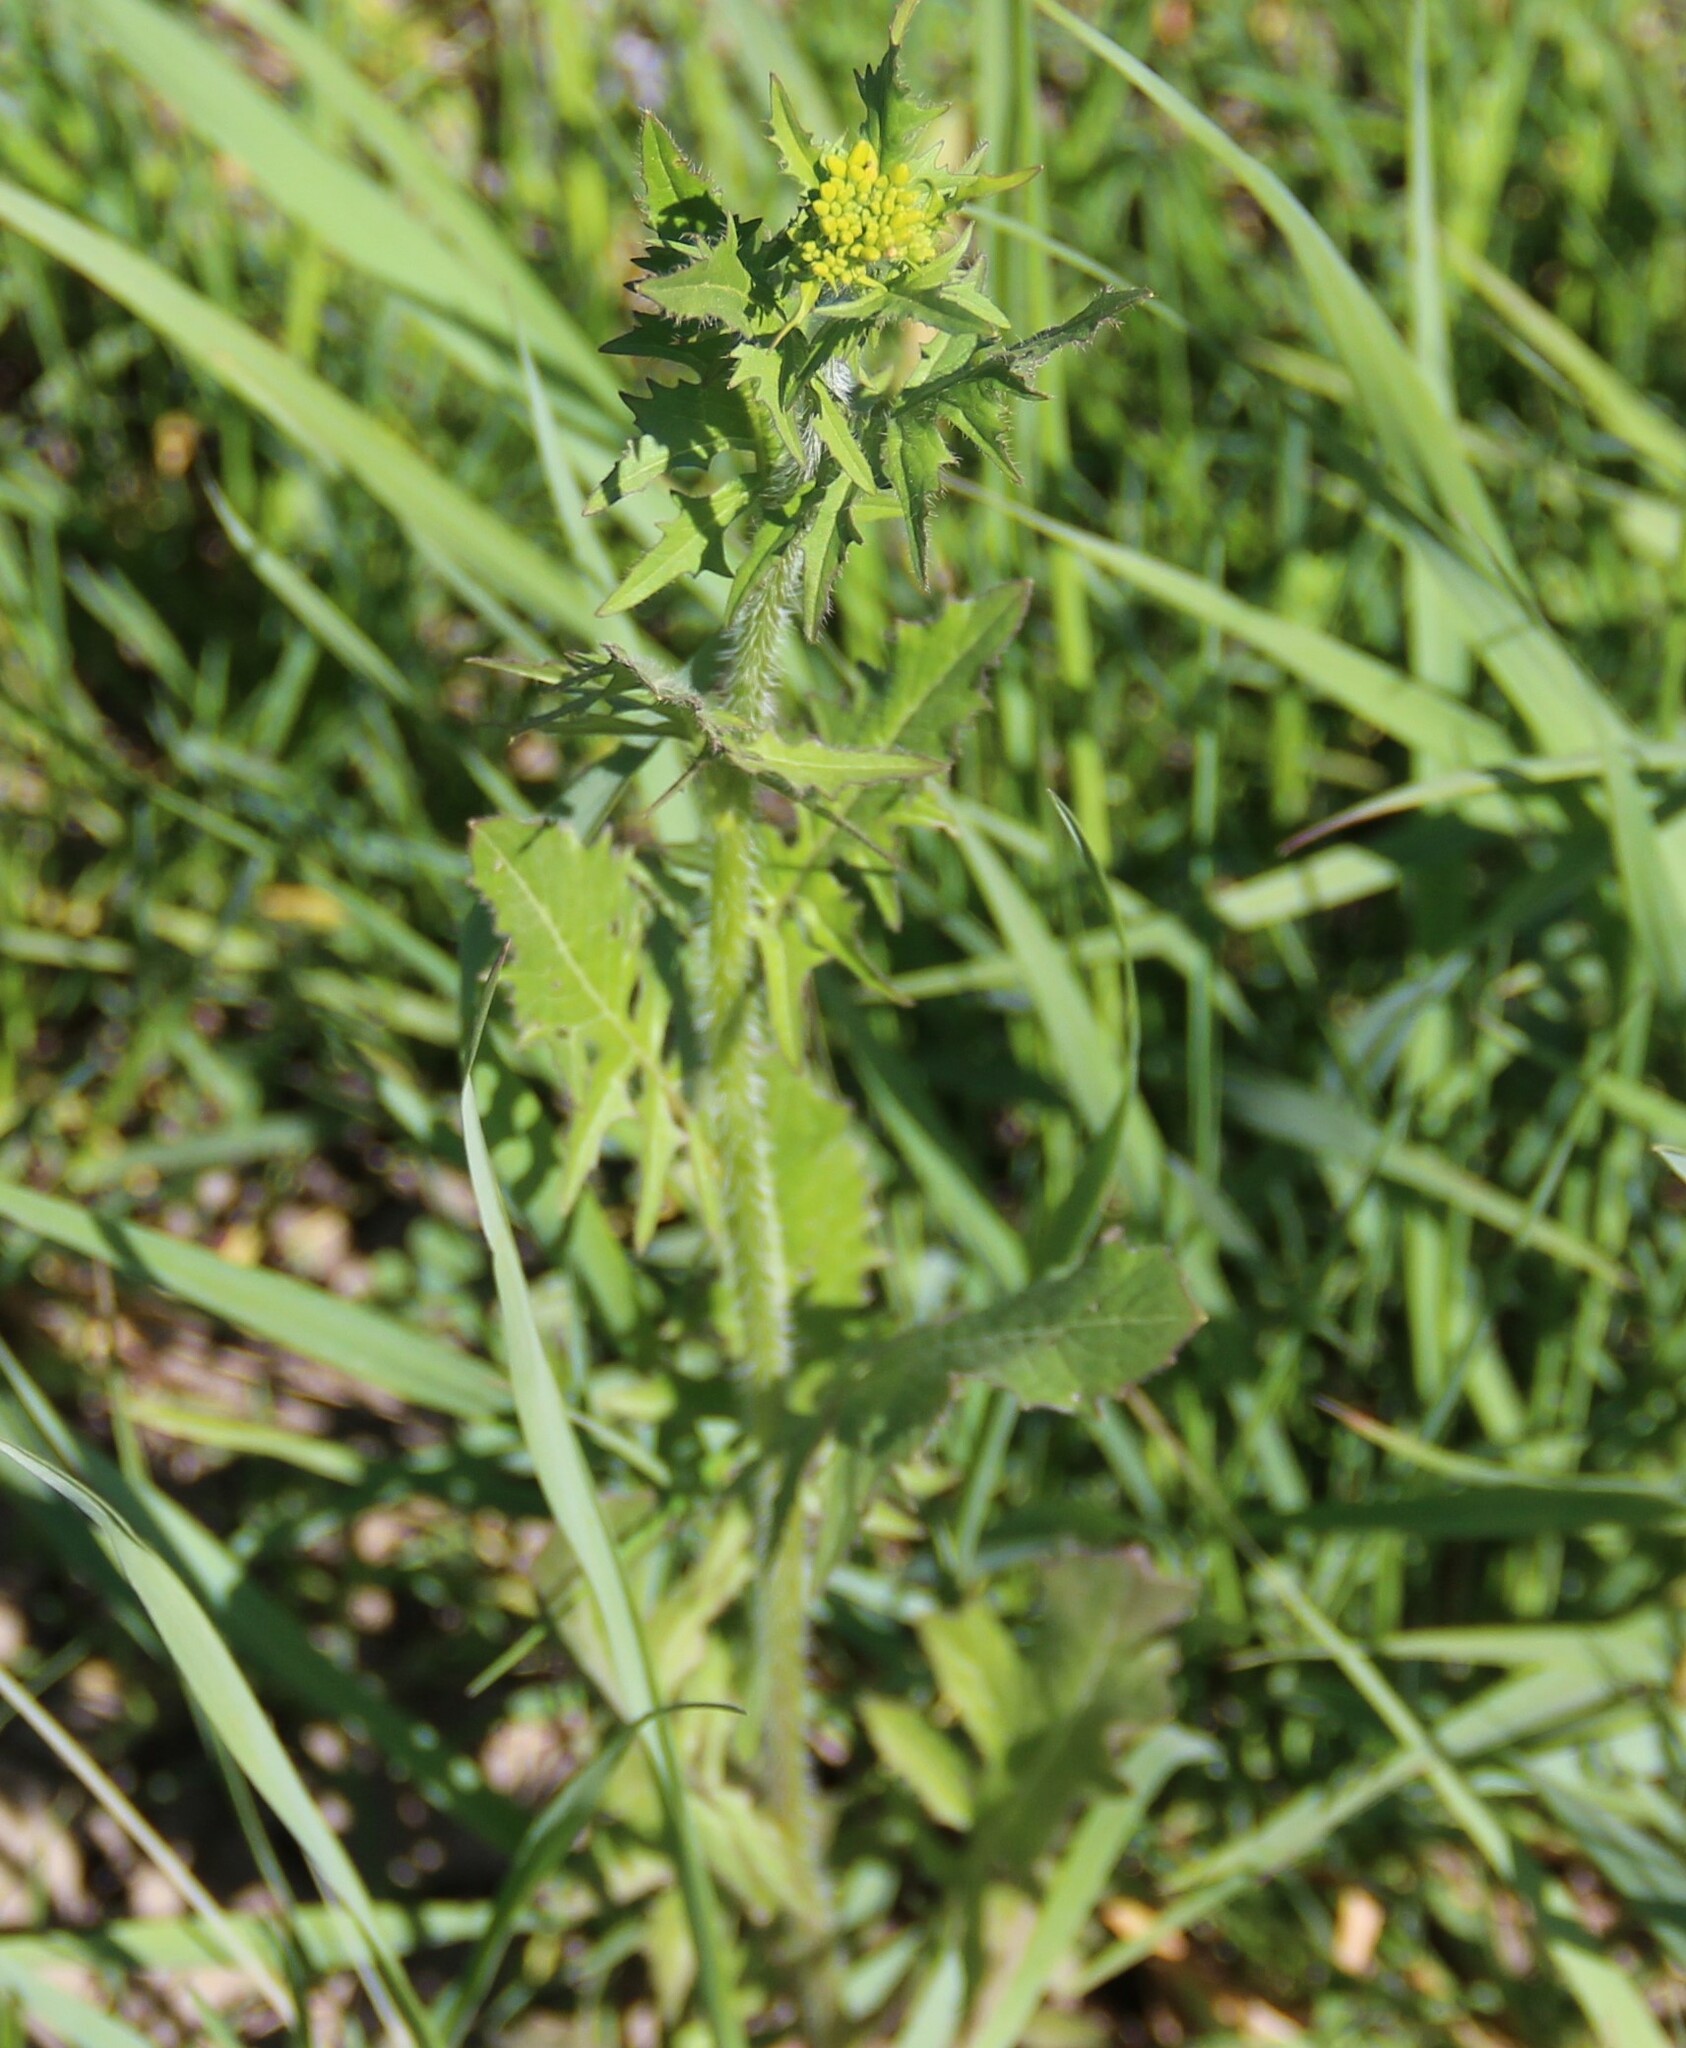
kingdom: Plantae
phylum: Tracheophyta
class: Magnoliopsida
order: Brassicales
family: Brassicaceae
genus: Sisymbrium
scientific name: Sisymbrium loeselii
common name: False london-rocket
